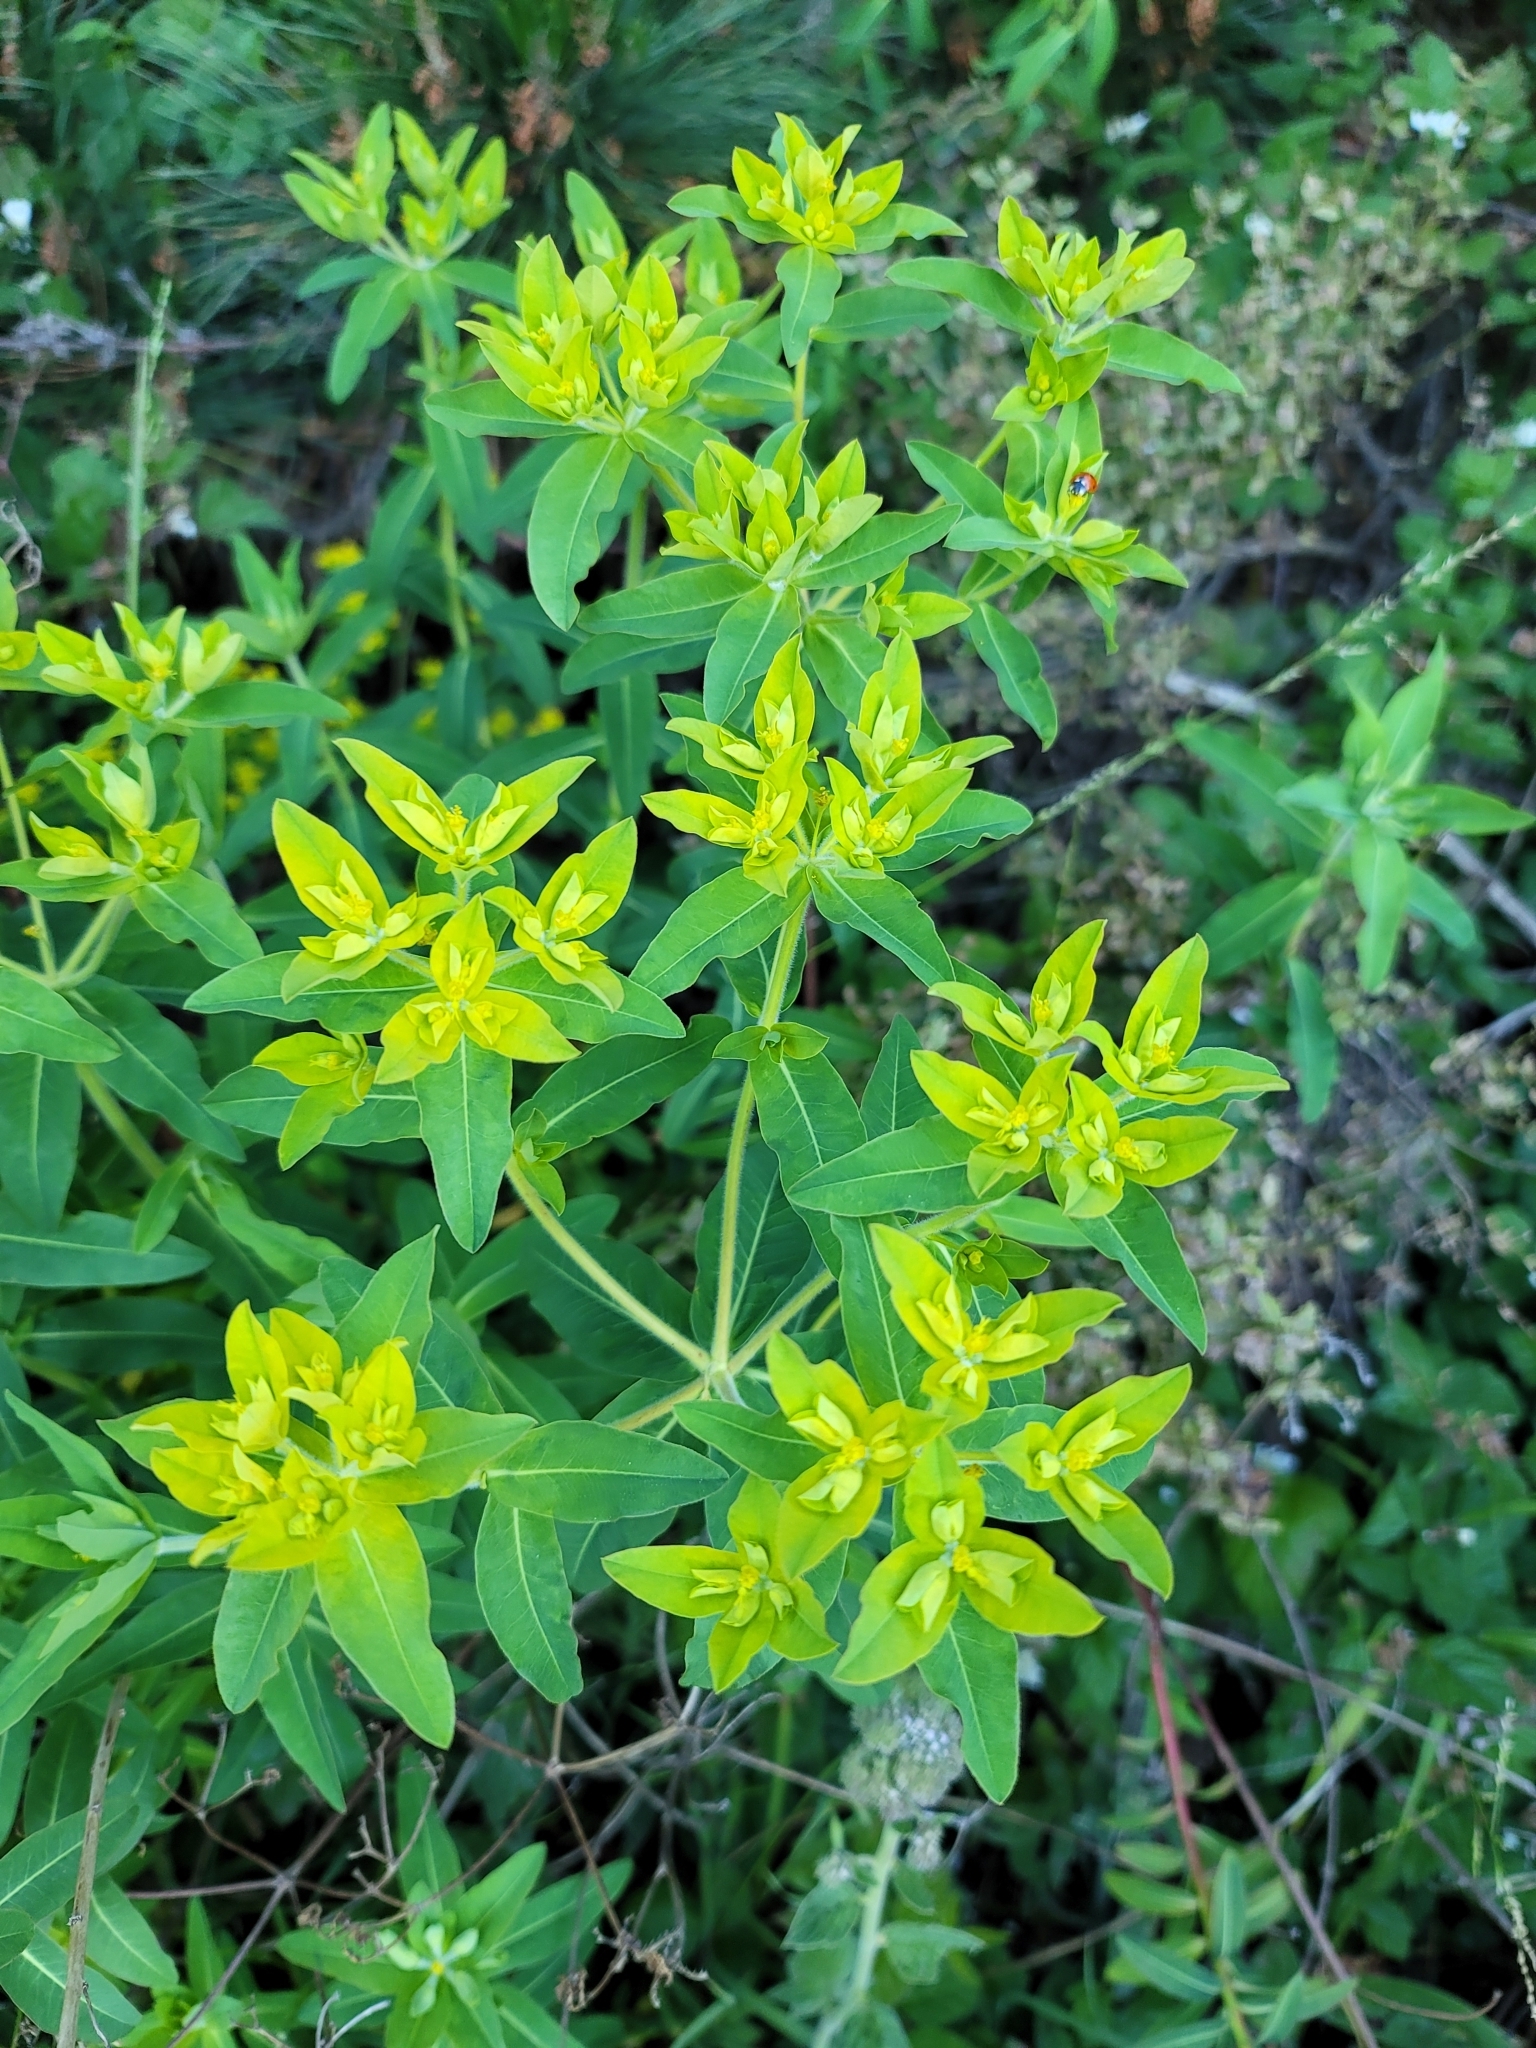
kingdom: Plantae
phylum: Tracheophyta
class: Magnoliopsida
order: Malpighiales
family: Euphorbiaceae
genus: Euphorbia
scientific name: Euphorbia oblongata
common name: Balkan spurge
